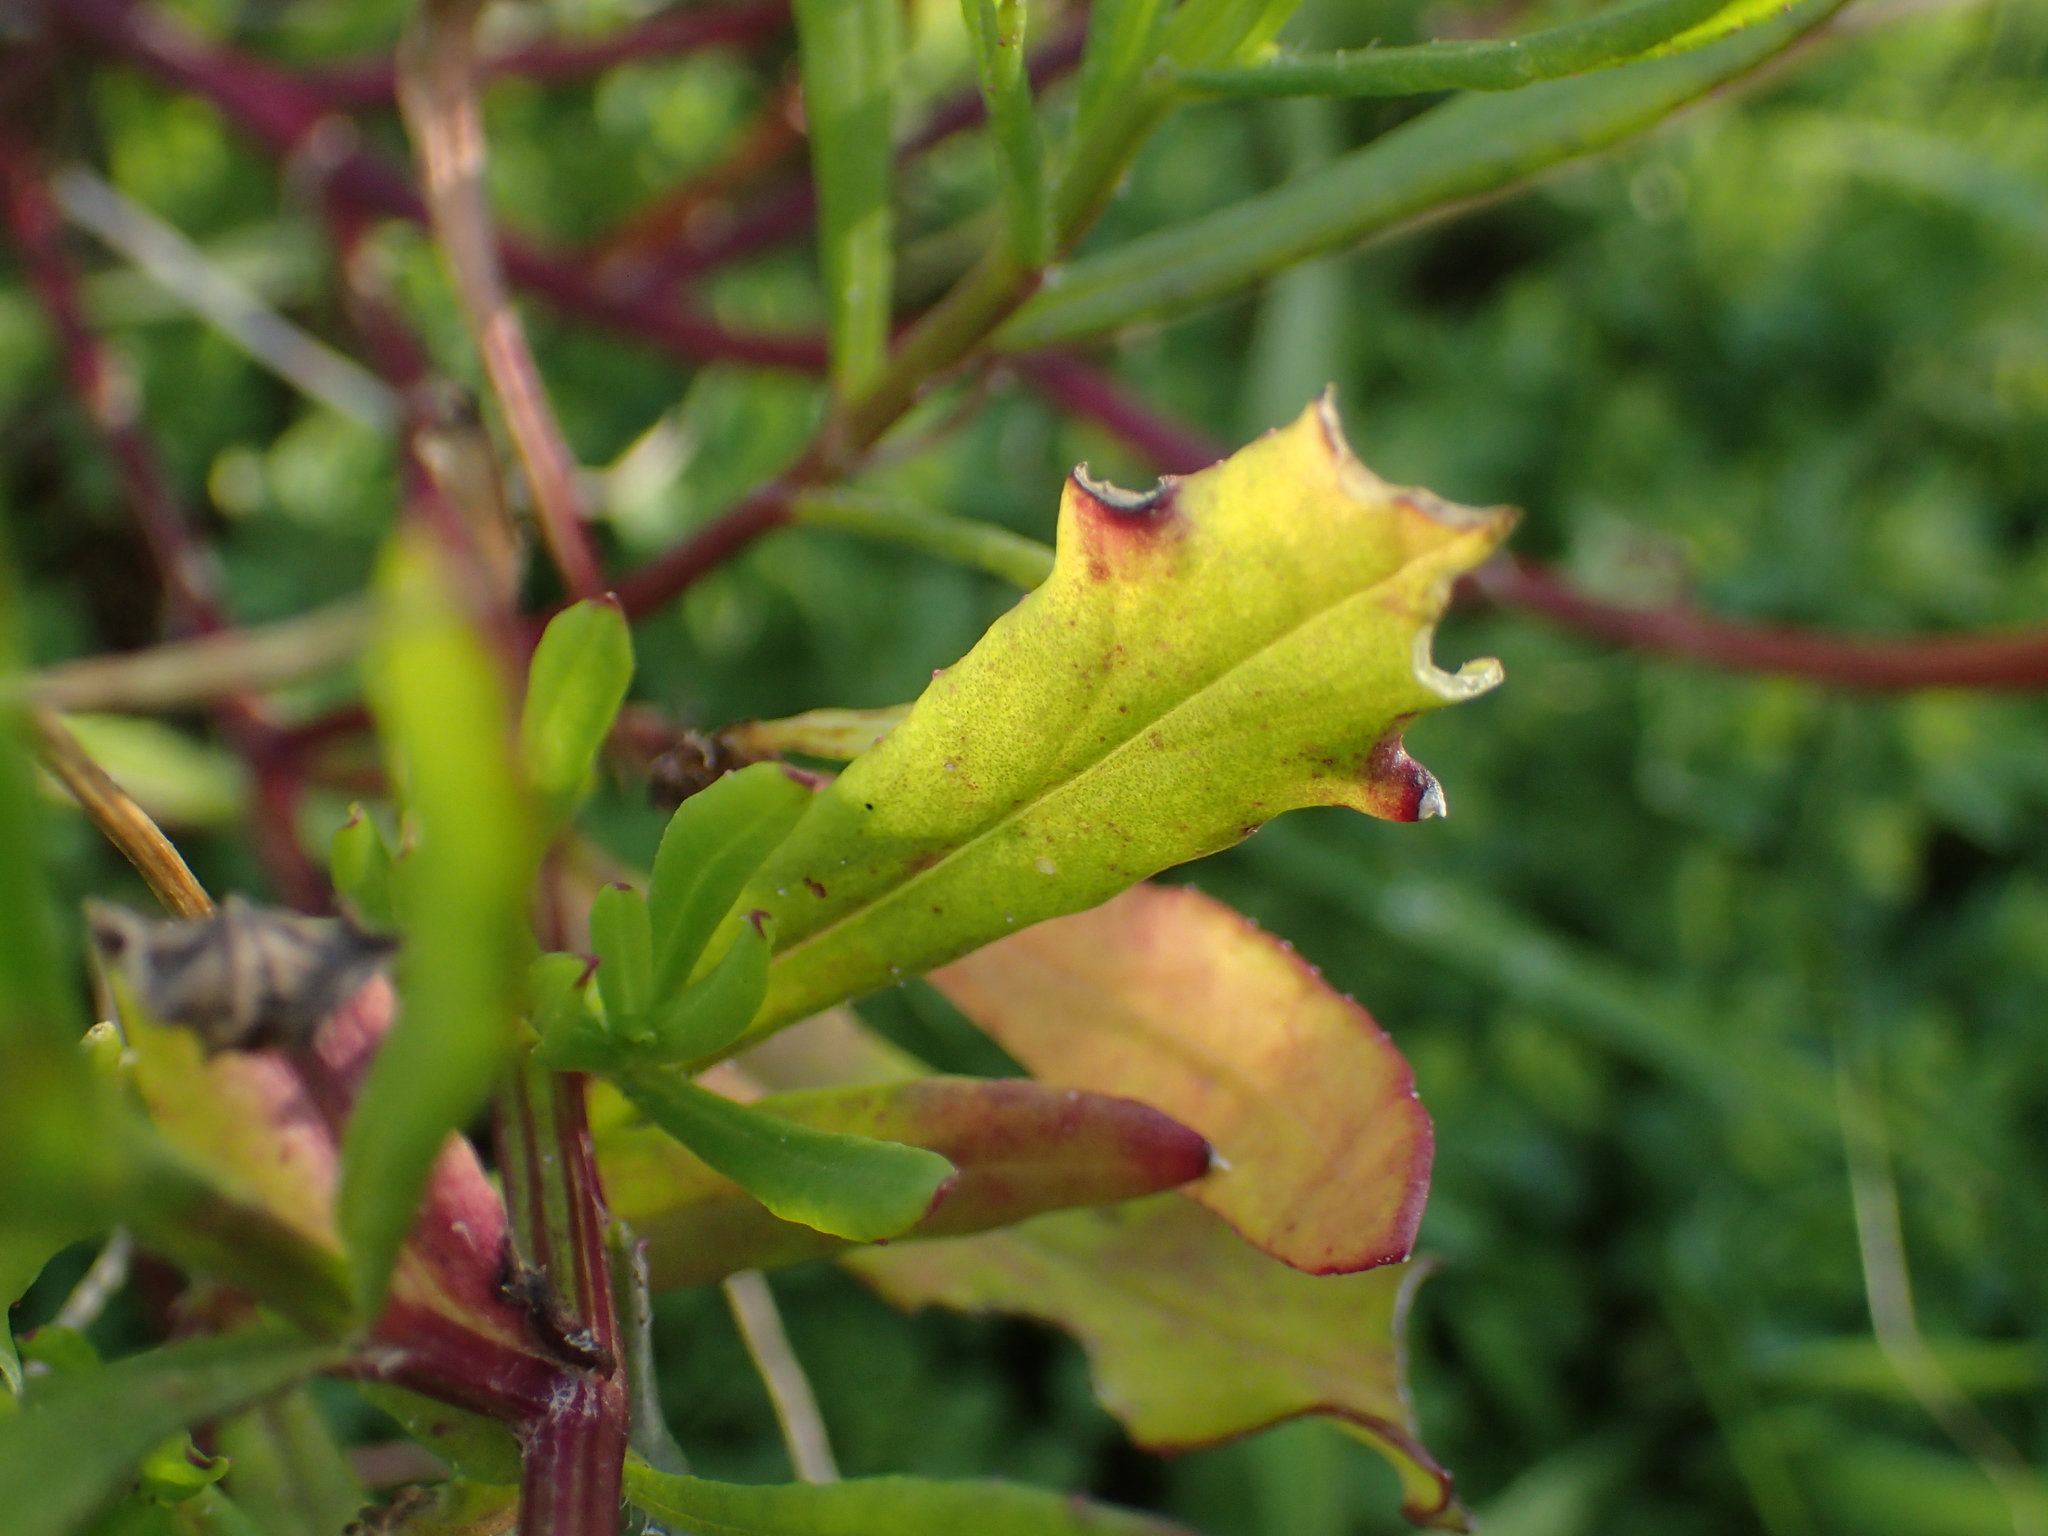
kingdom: Plantae
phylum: Tracheophyta
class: Magnoliopsida
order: Asterales
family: Asteraceae
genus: Senecio
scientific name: Senecio skirrhodon
